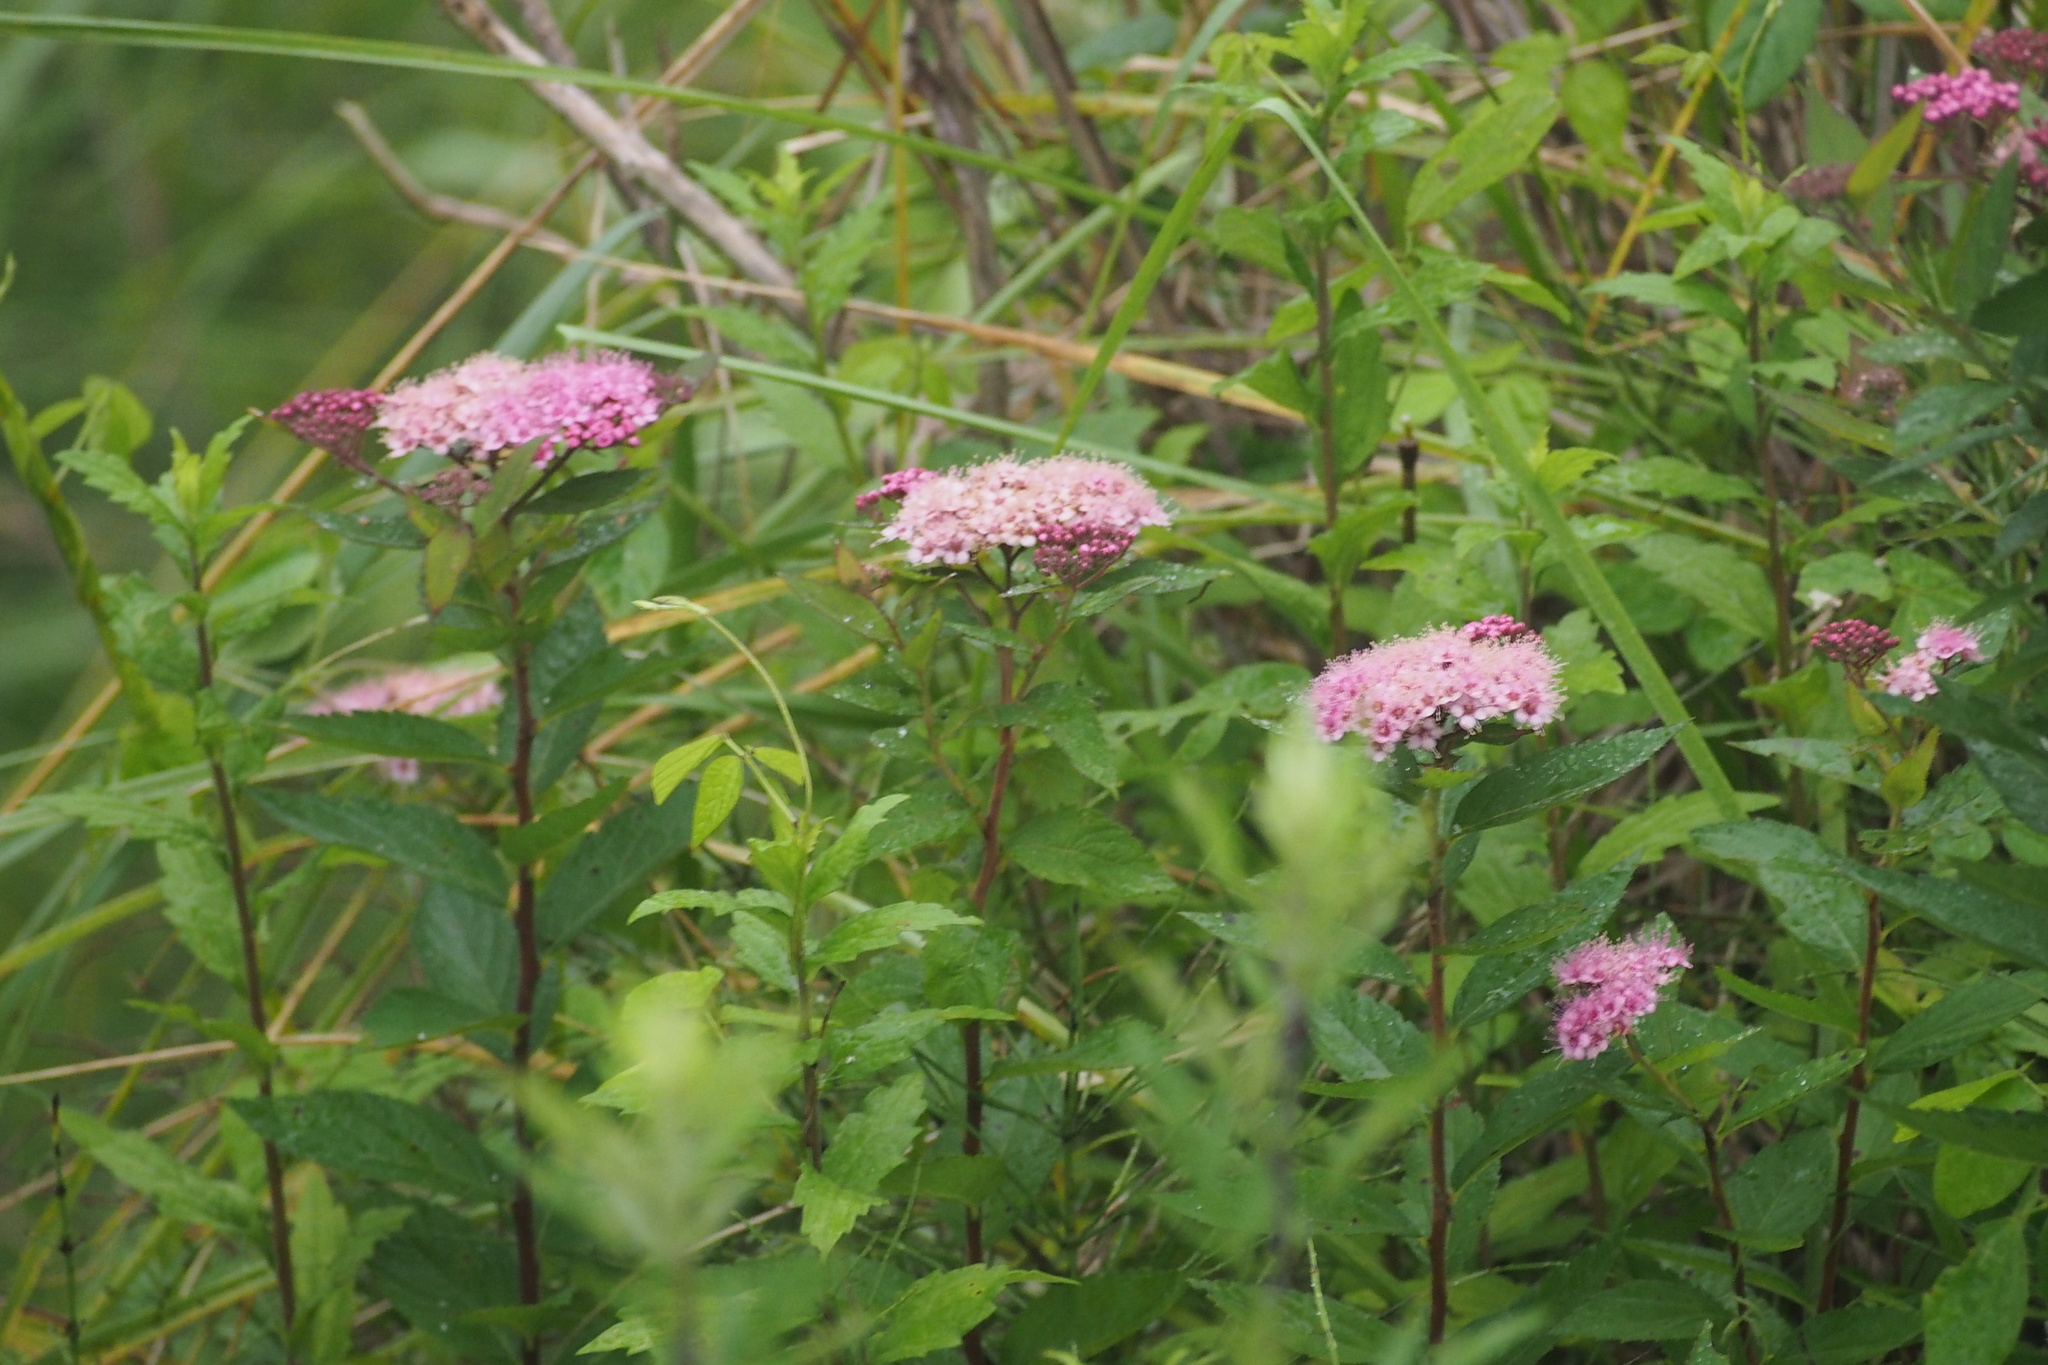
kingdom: Plantae
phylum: Tracheophyta
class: Magnoliopsida
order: Rosales
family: Rosaceae
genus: Spiraea
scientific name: Spiraea japonica
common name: Japanese spiraea
